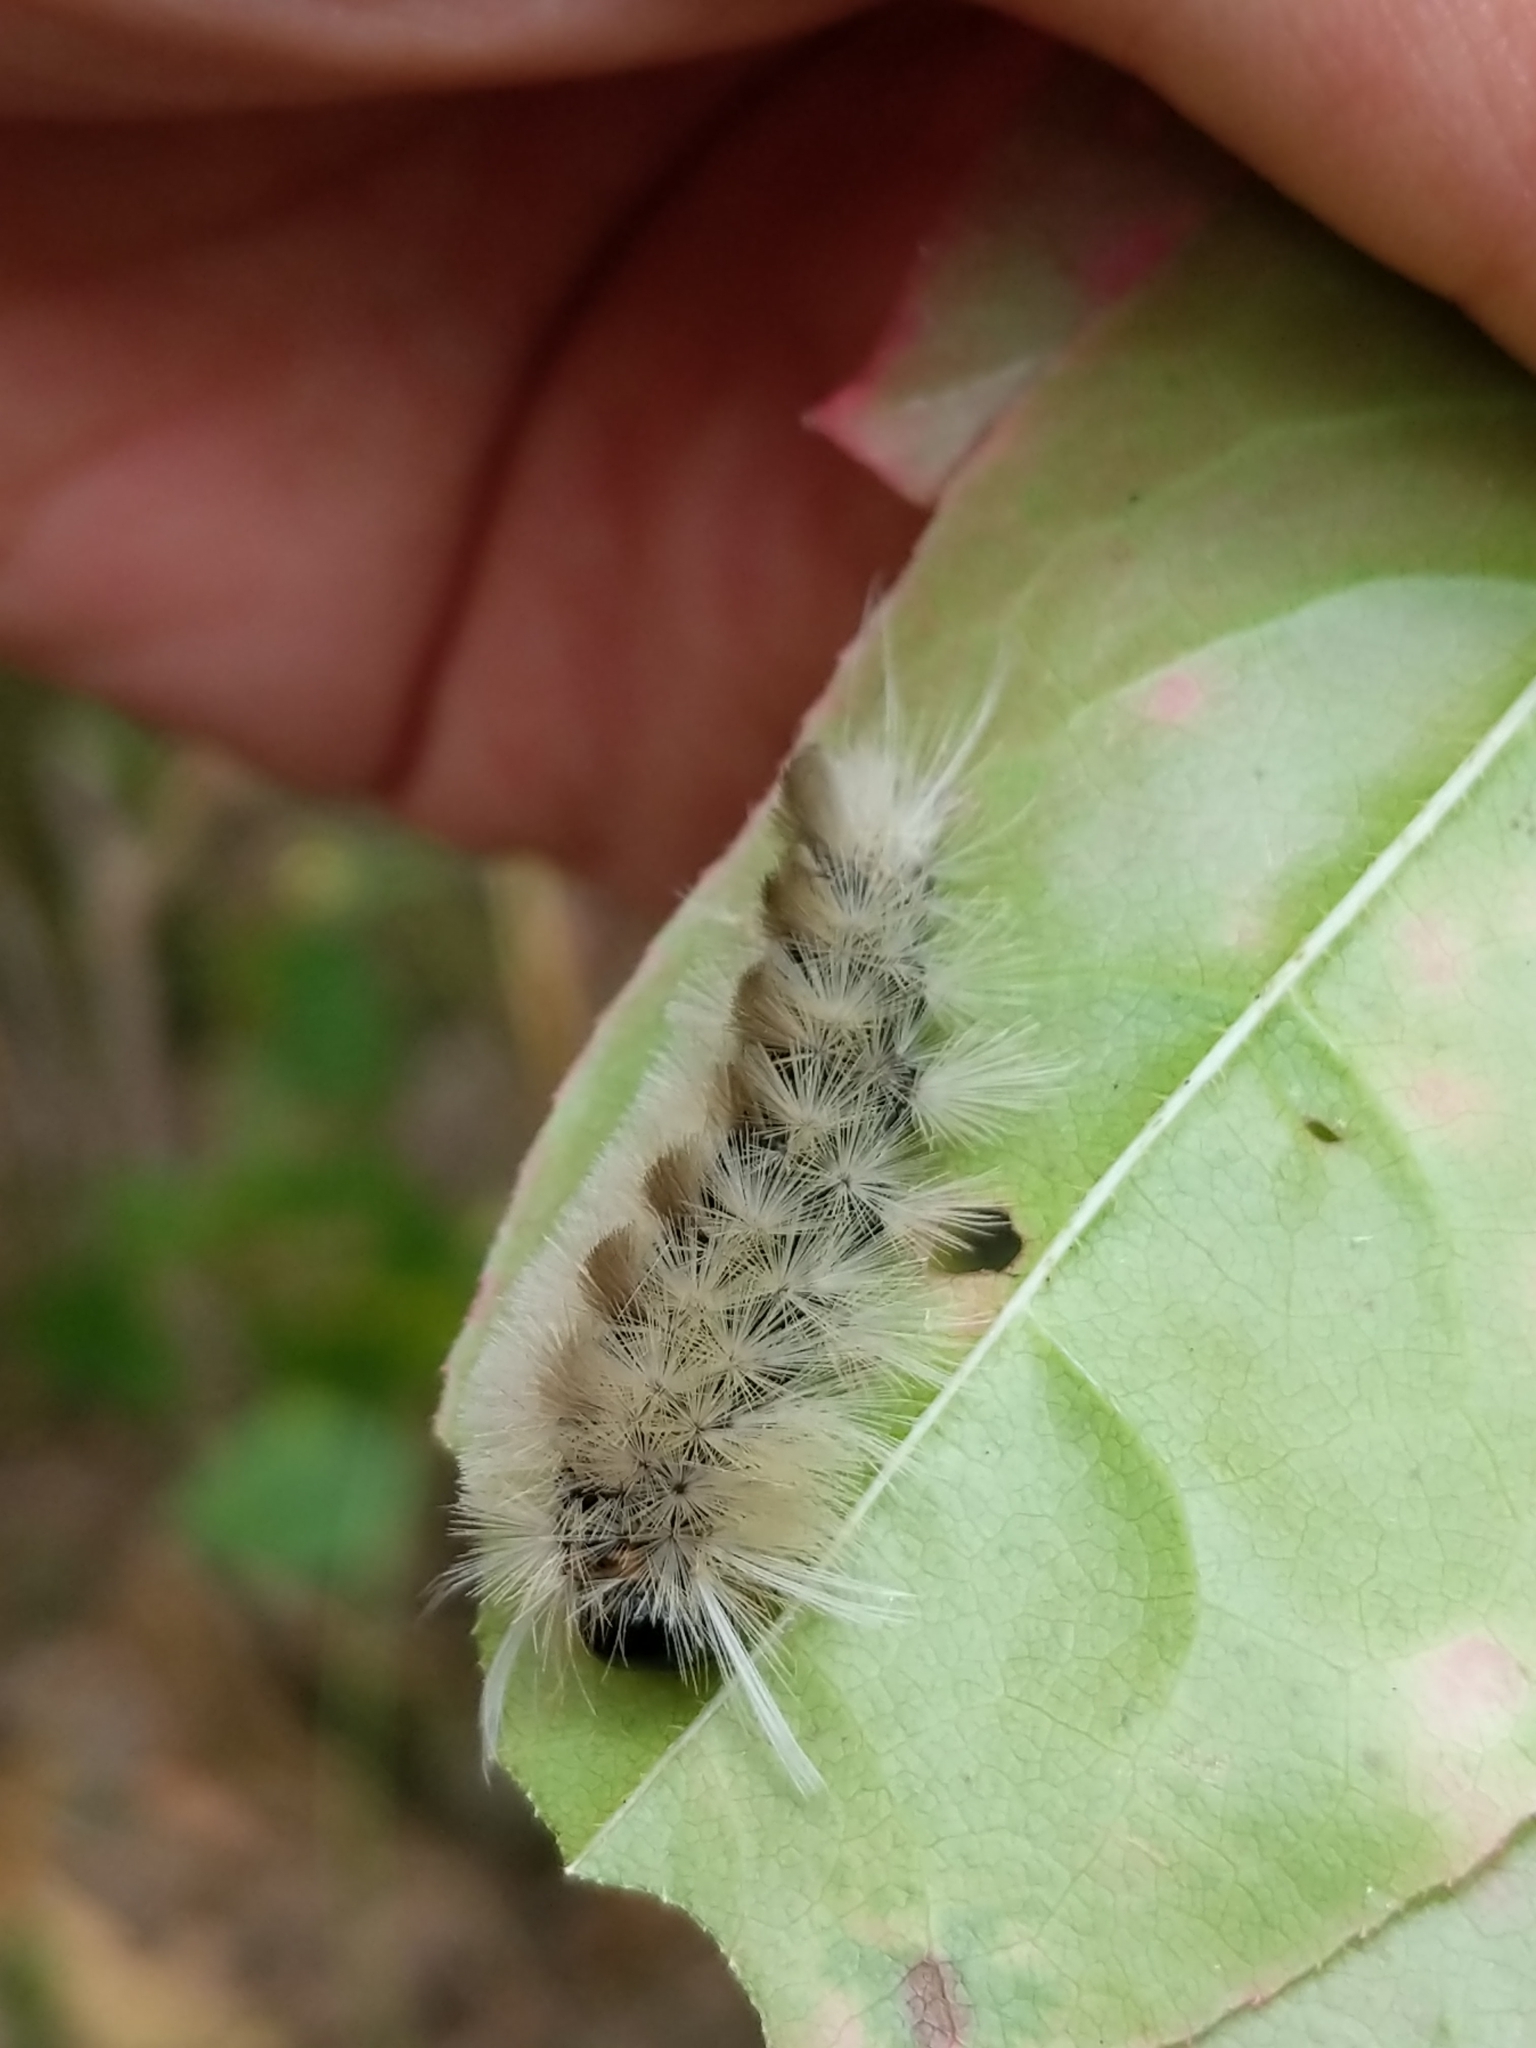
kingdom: Animalia
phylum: Arthropoda
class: Insecta
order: Lepidoptera
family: Erebidae
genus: Halysidota
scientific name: Halysidota tessellaris
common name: Banded tussock moth
